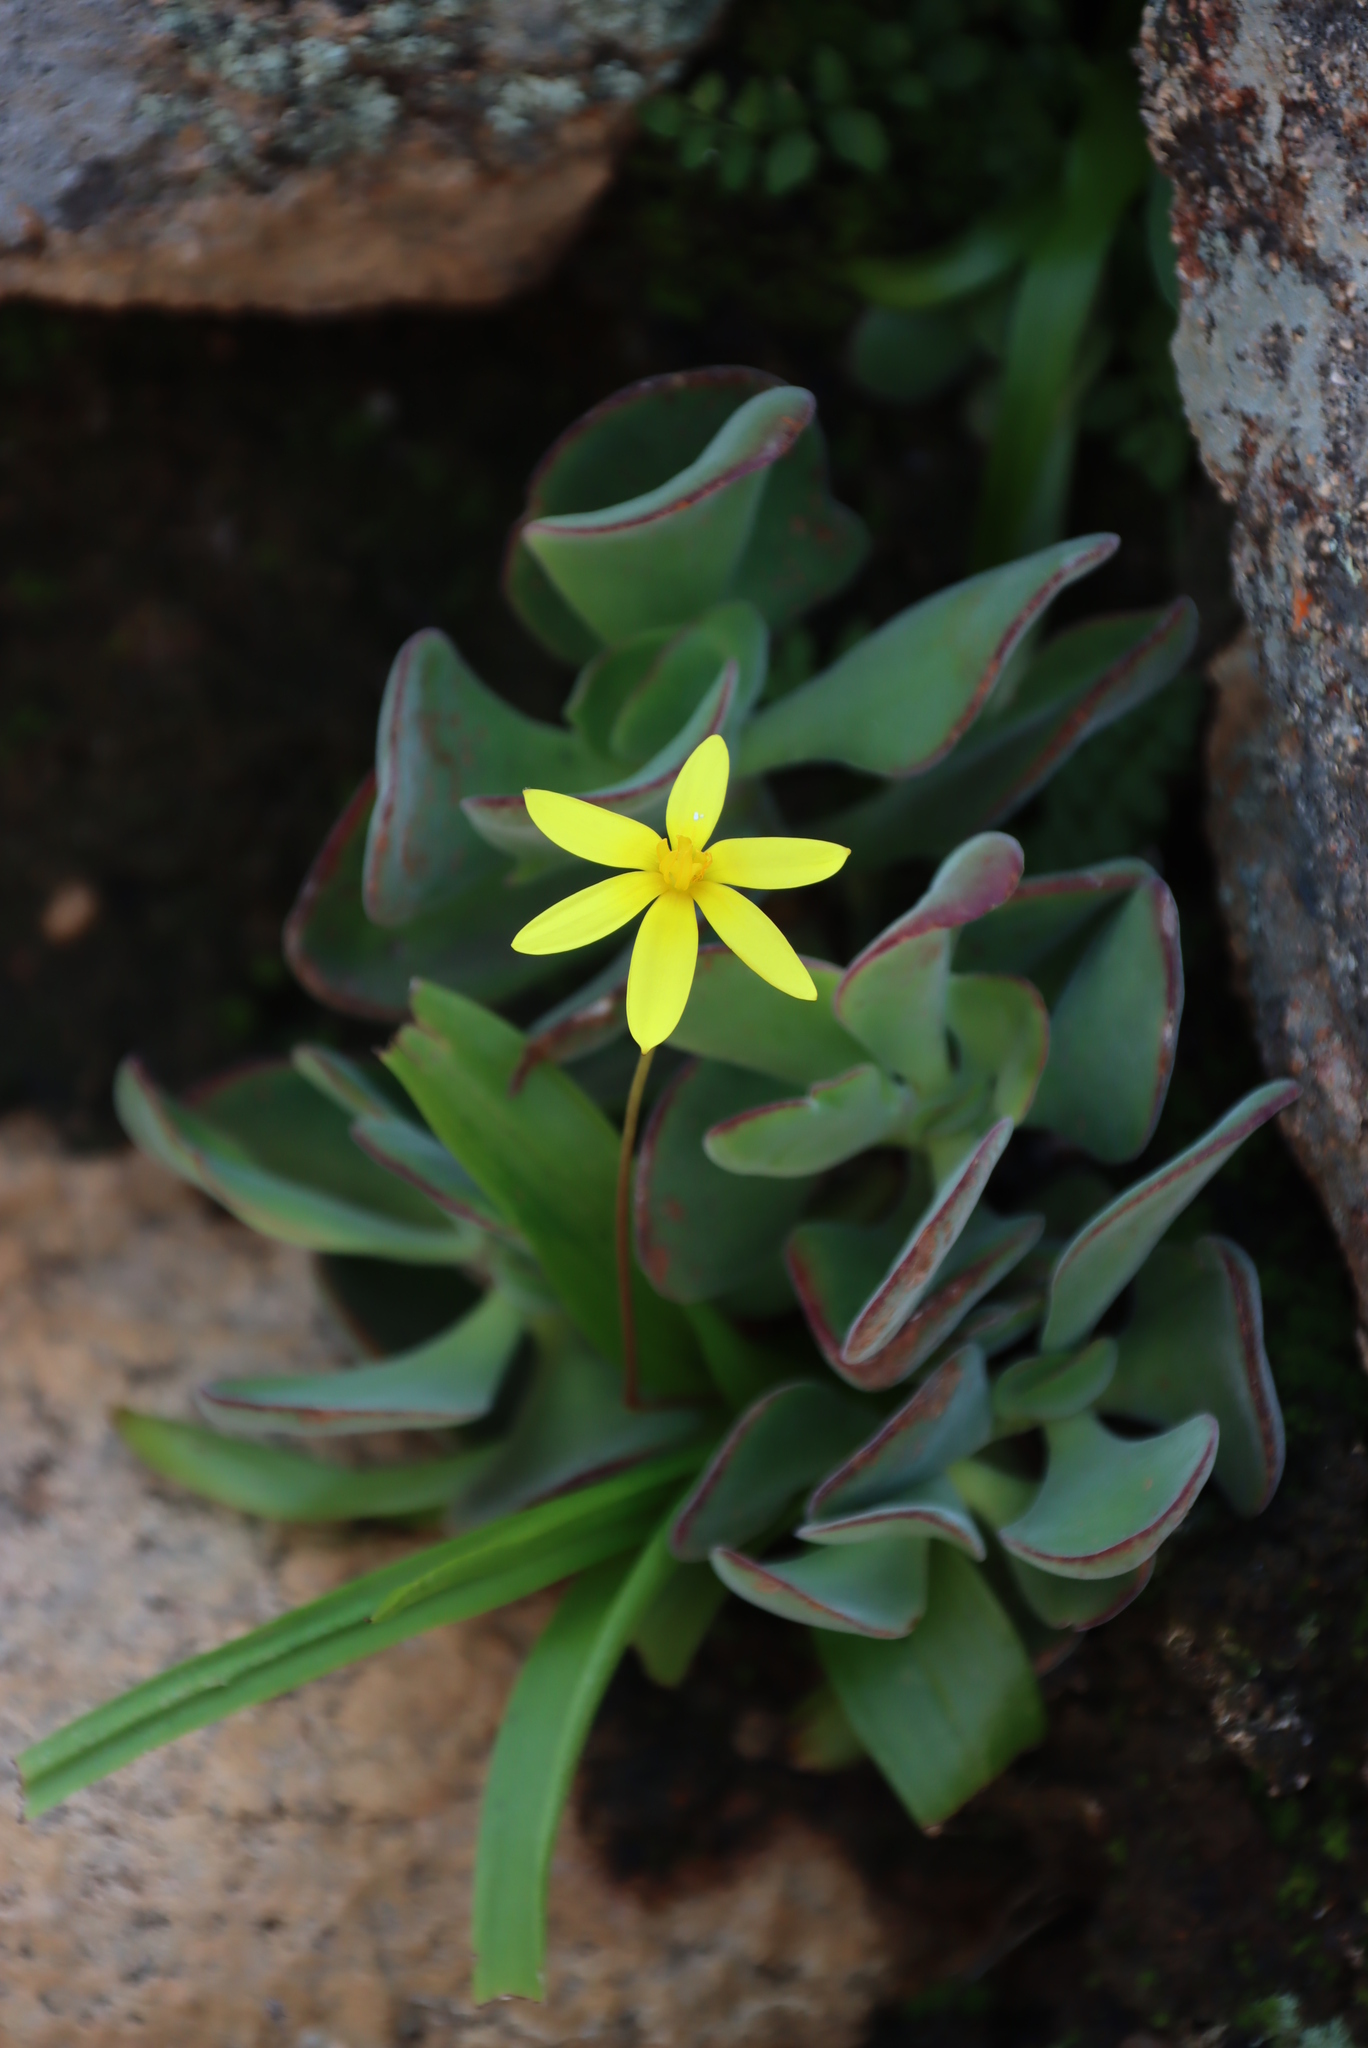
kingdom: Plantae
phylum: Tracheophyta
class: Liliopsida
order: Asparagales
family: Hypoxidaceae
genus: Pauridia
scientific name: Pauridia gracilipes
